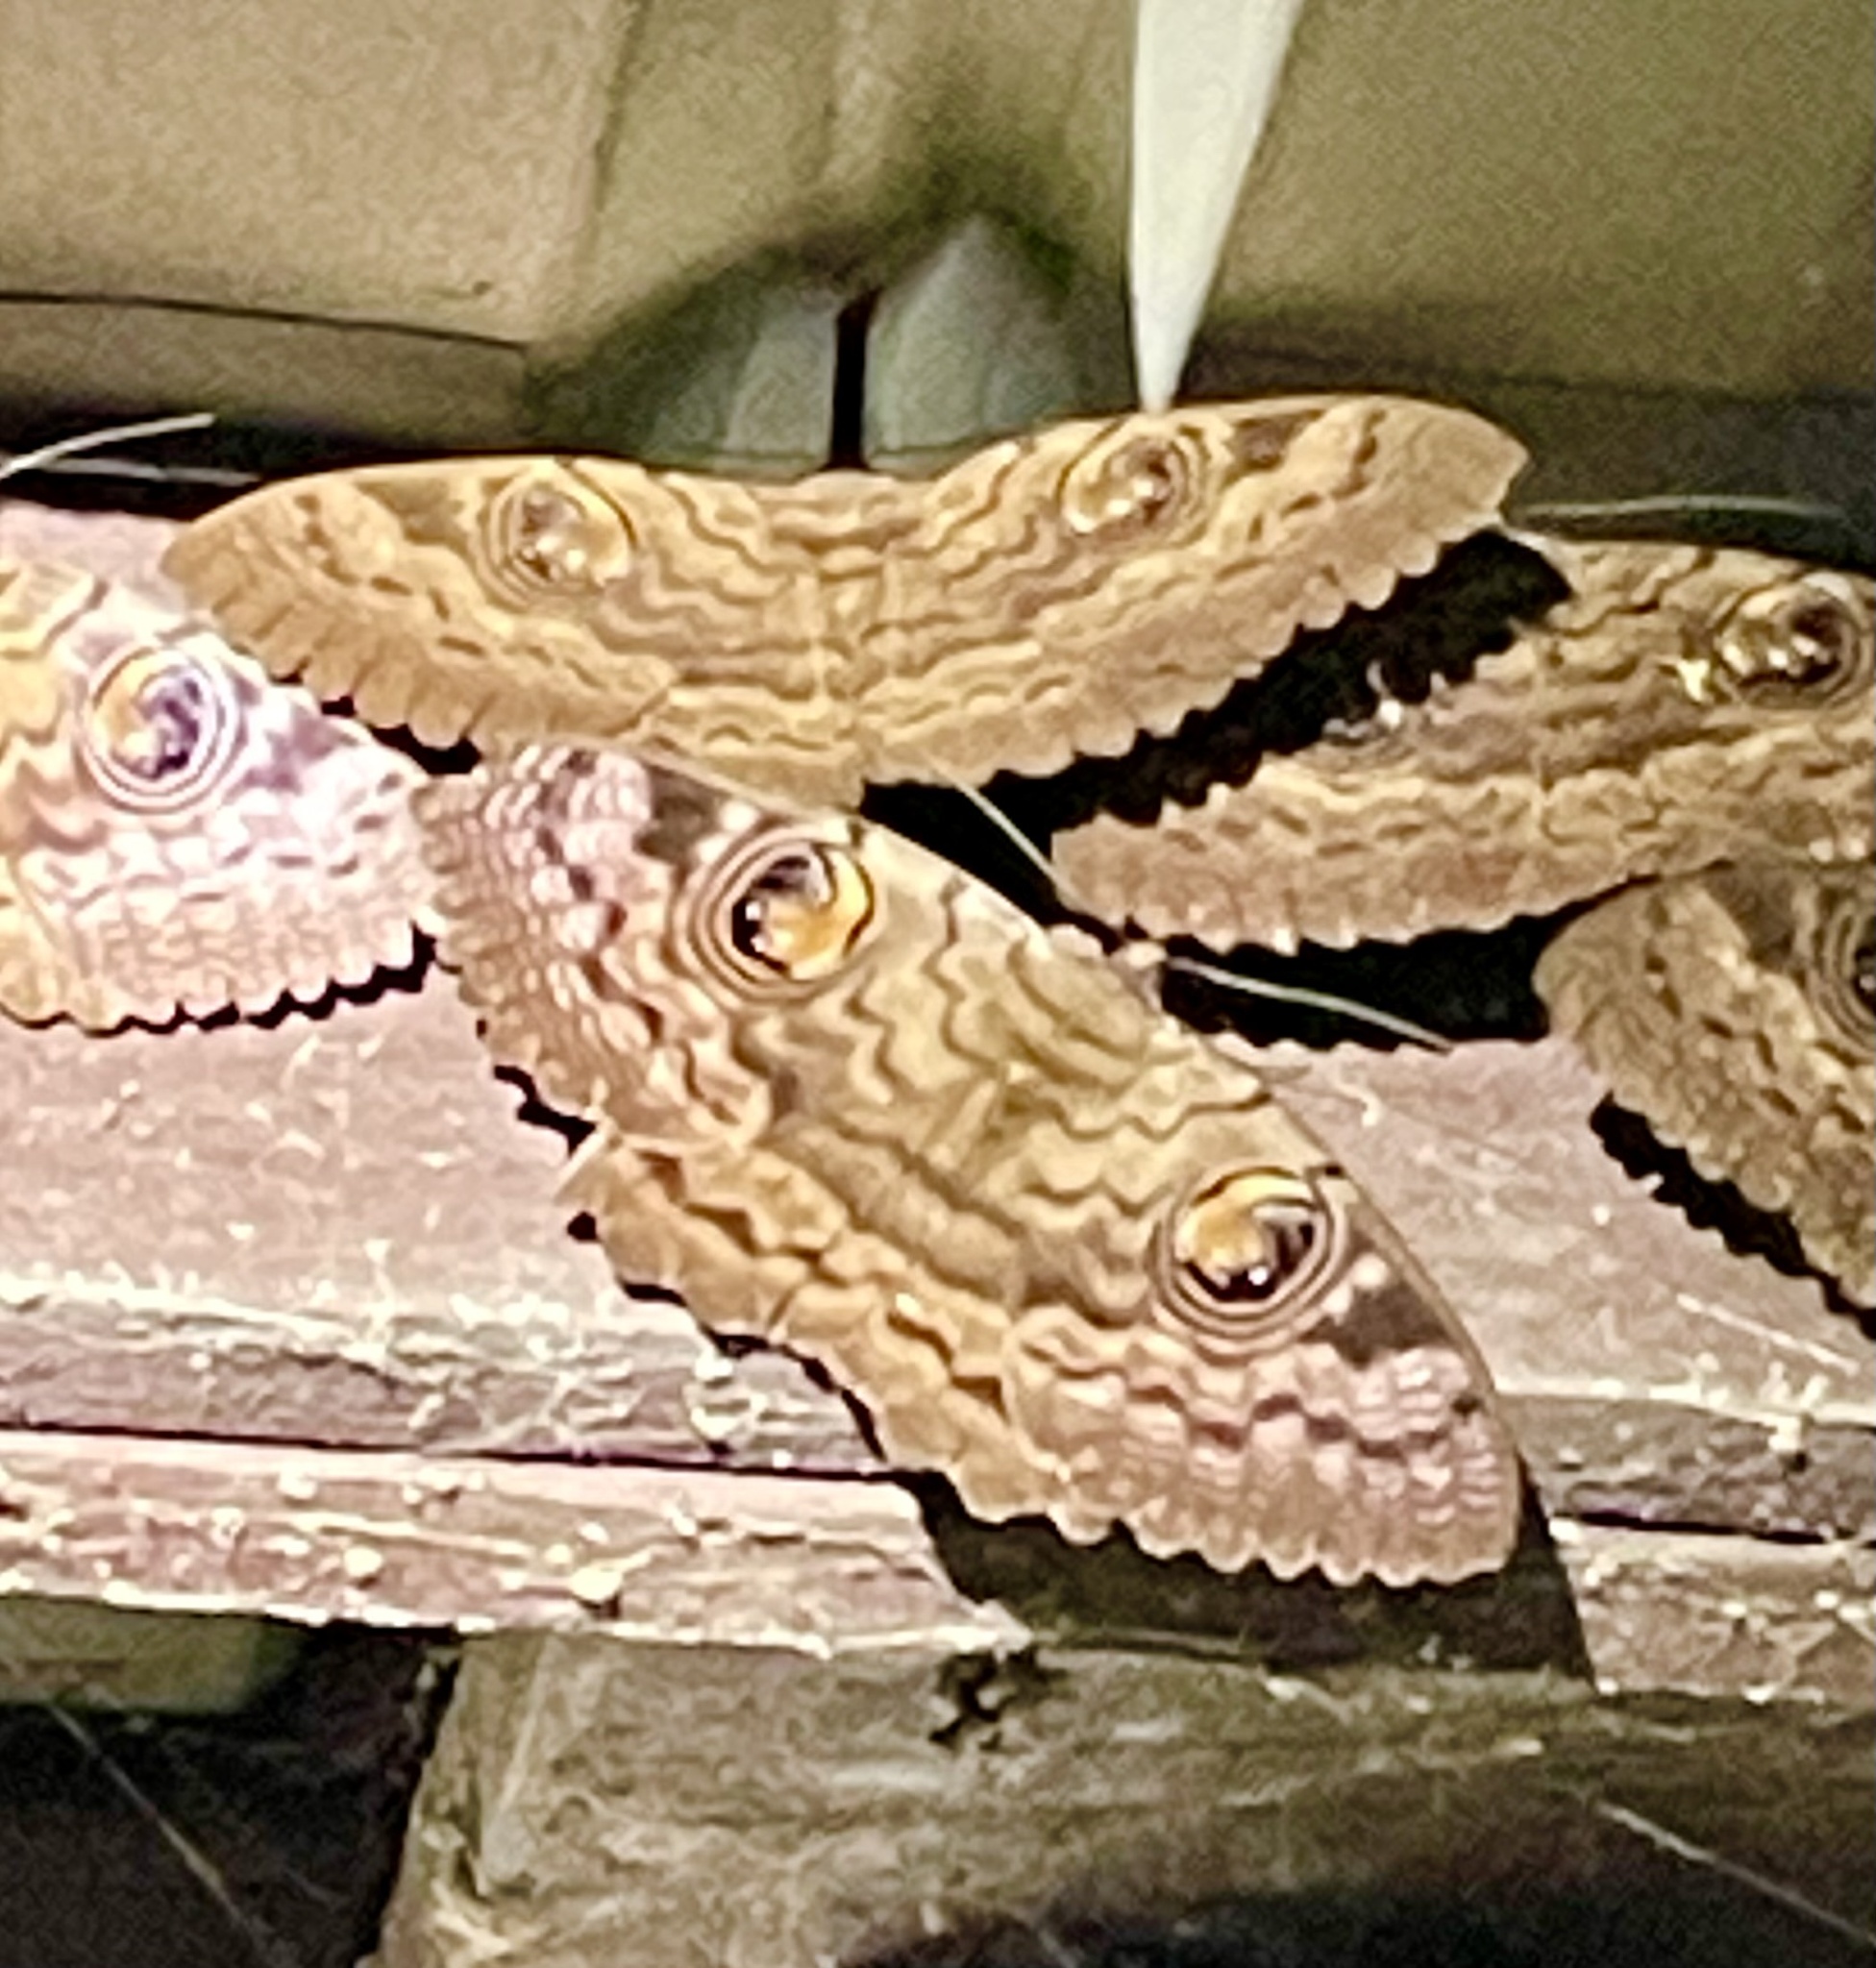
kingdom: Animalia
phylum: Arthropoda
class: Insecta
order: Lepidoptera
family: Erebidae
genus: Erebus
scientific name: Erebus walkeri
